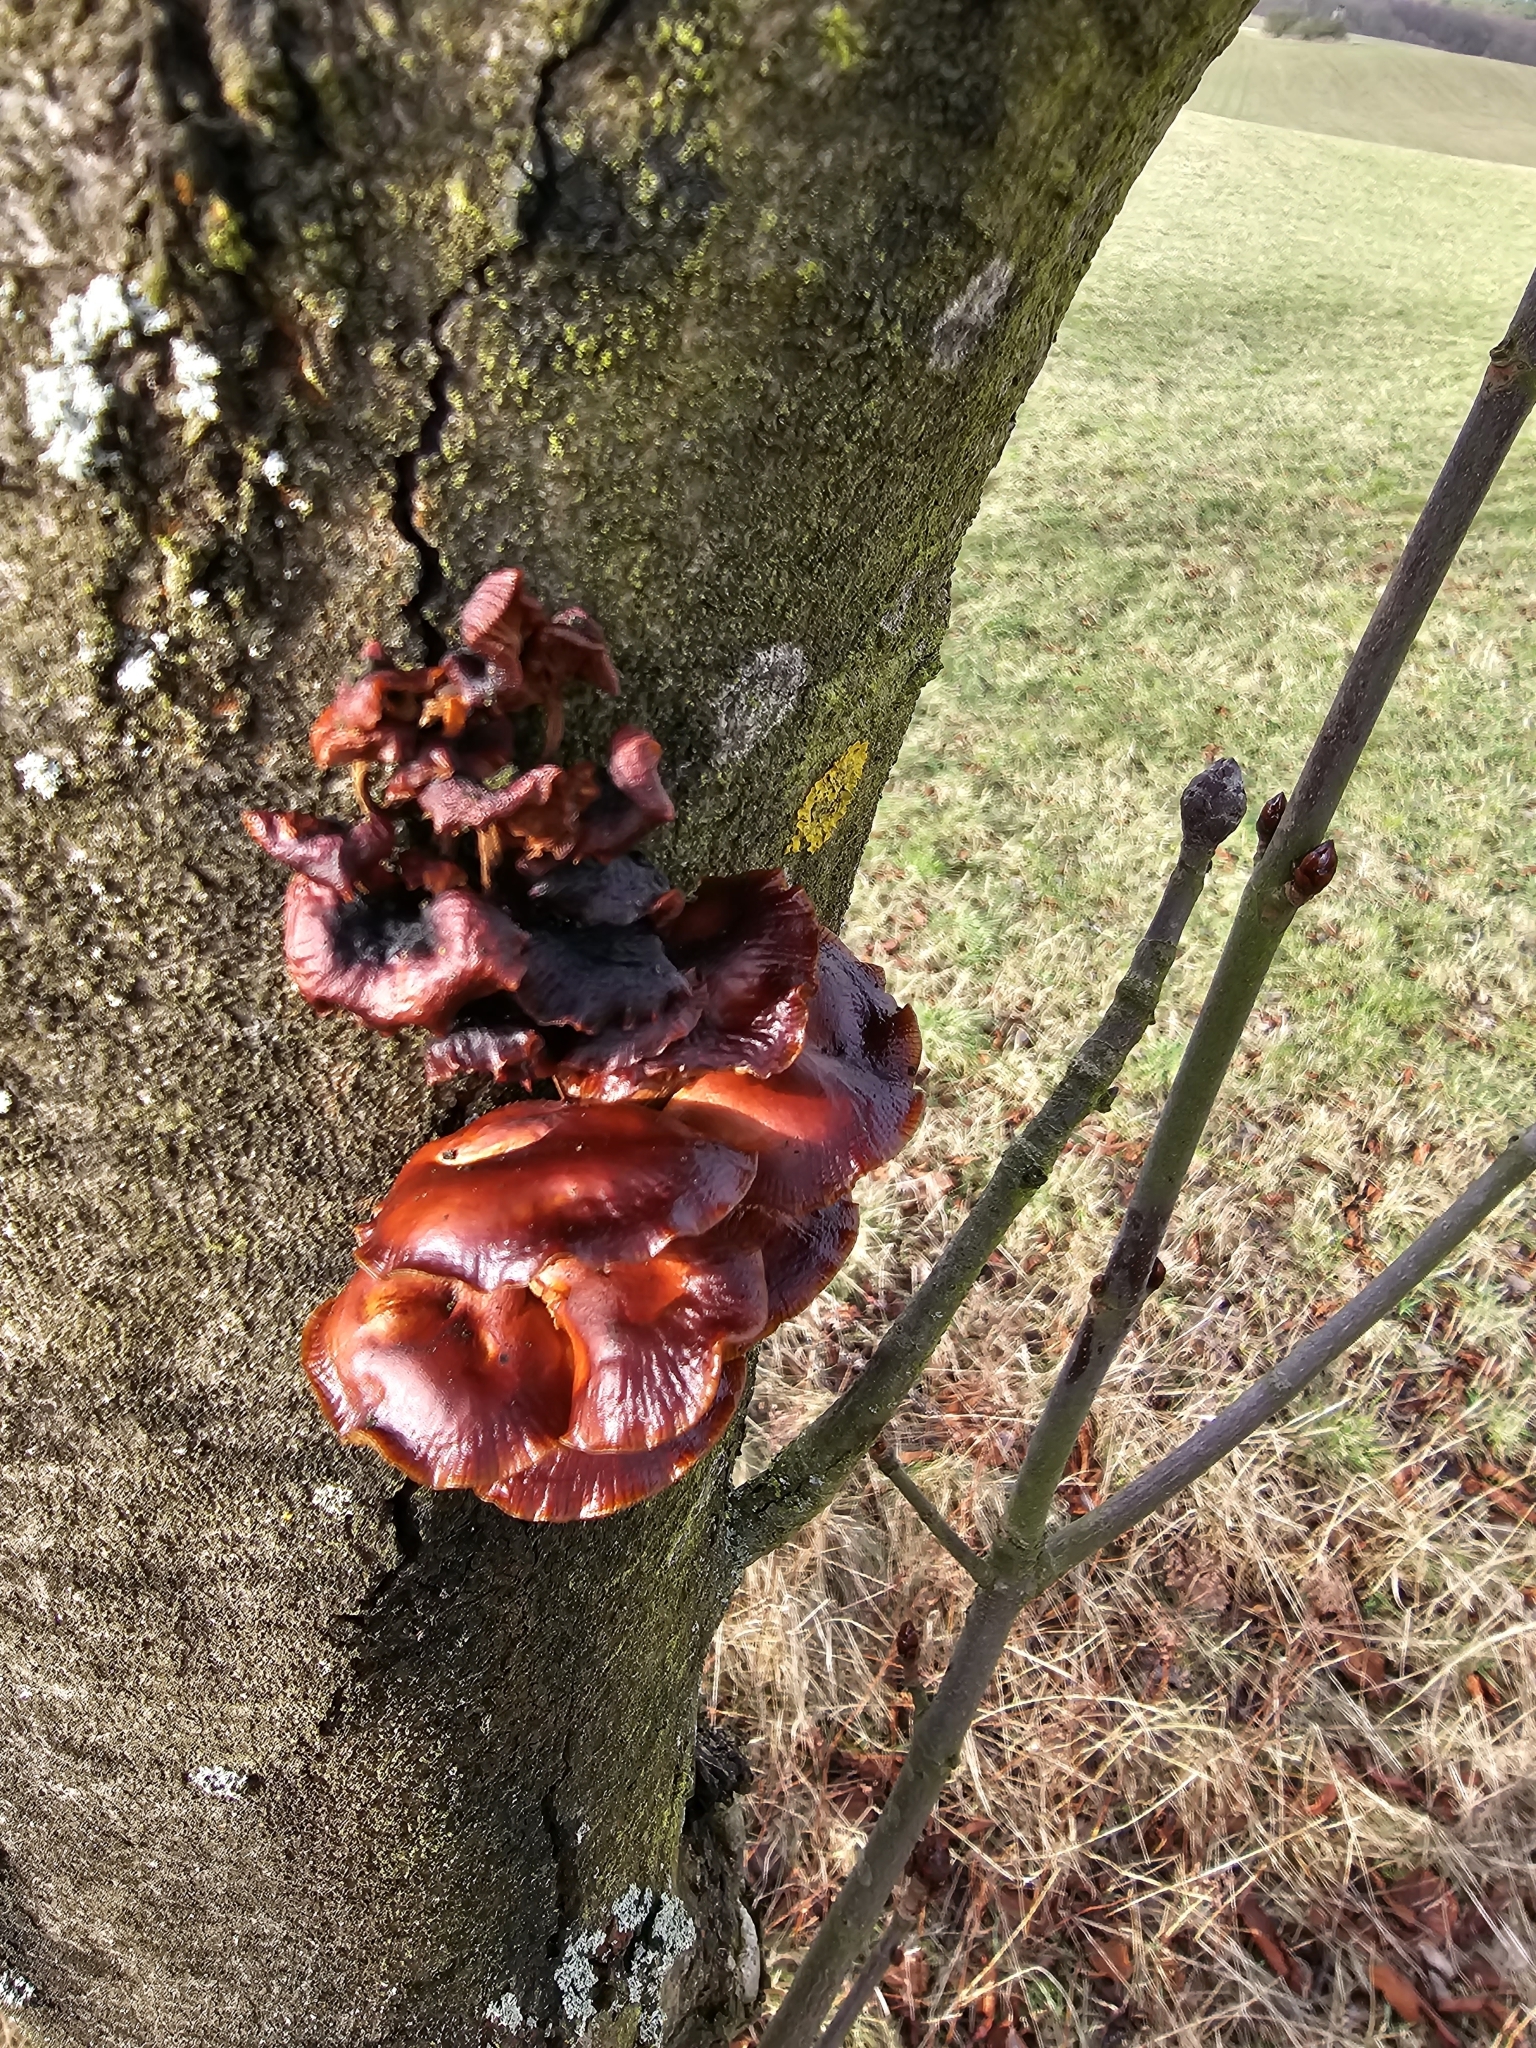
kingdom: Fungi
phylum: Basidiomycota
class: Agaricomycetes
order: Agaricales
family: Physalacriaceae
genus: Flammulina
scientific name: Flammulina
